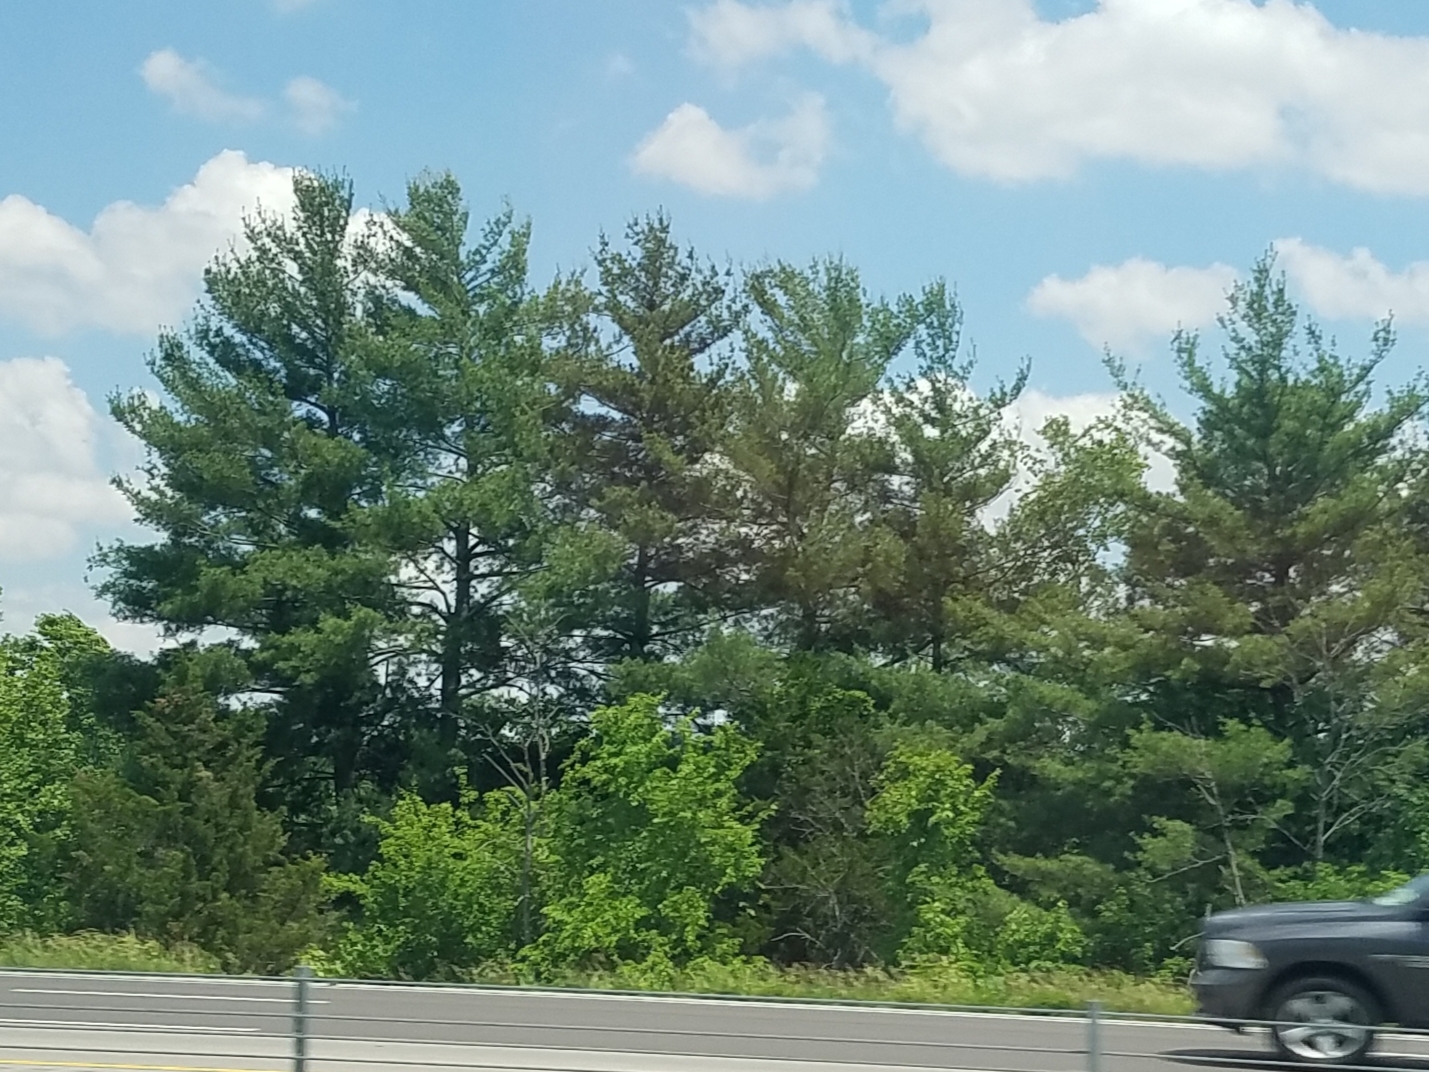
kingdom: Plantae
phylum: Tracheophyta
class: Pinopsida
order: Pinales
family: Pinaceae
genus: Pinus
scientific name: Pinus strobus
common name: Weymouth pine
